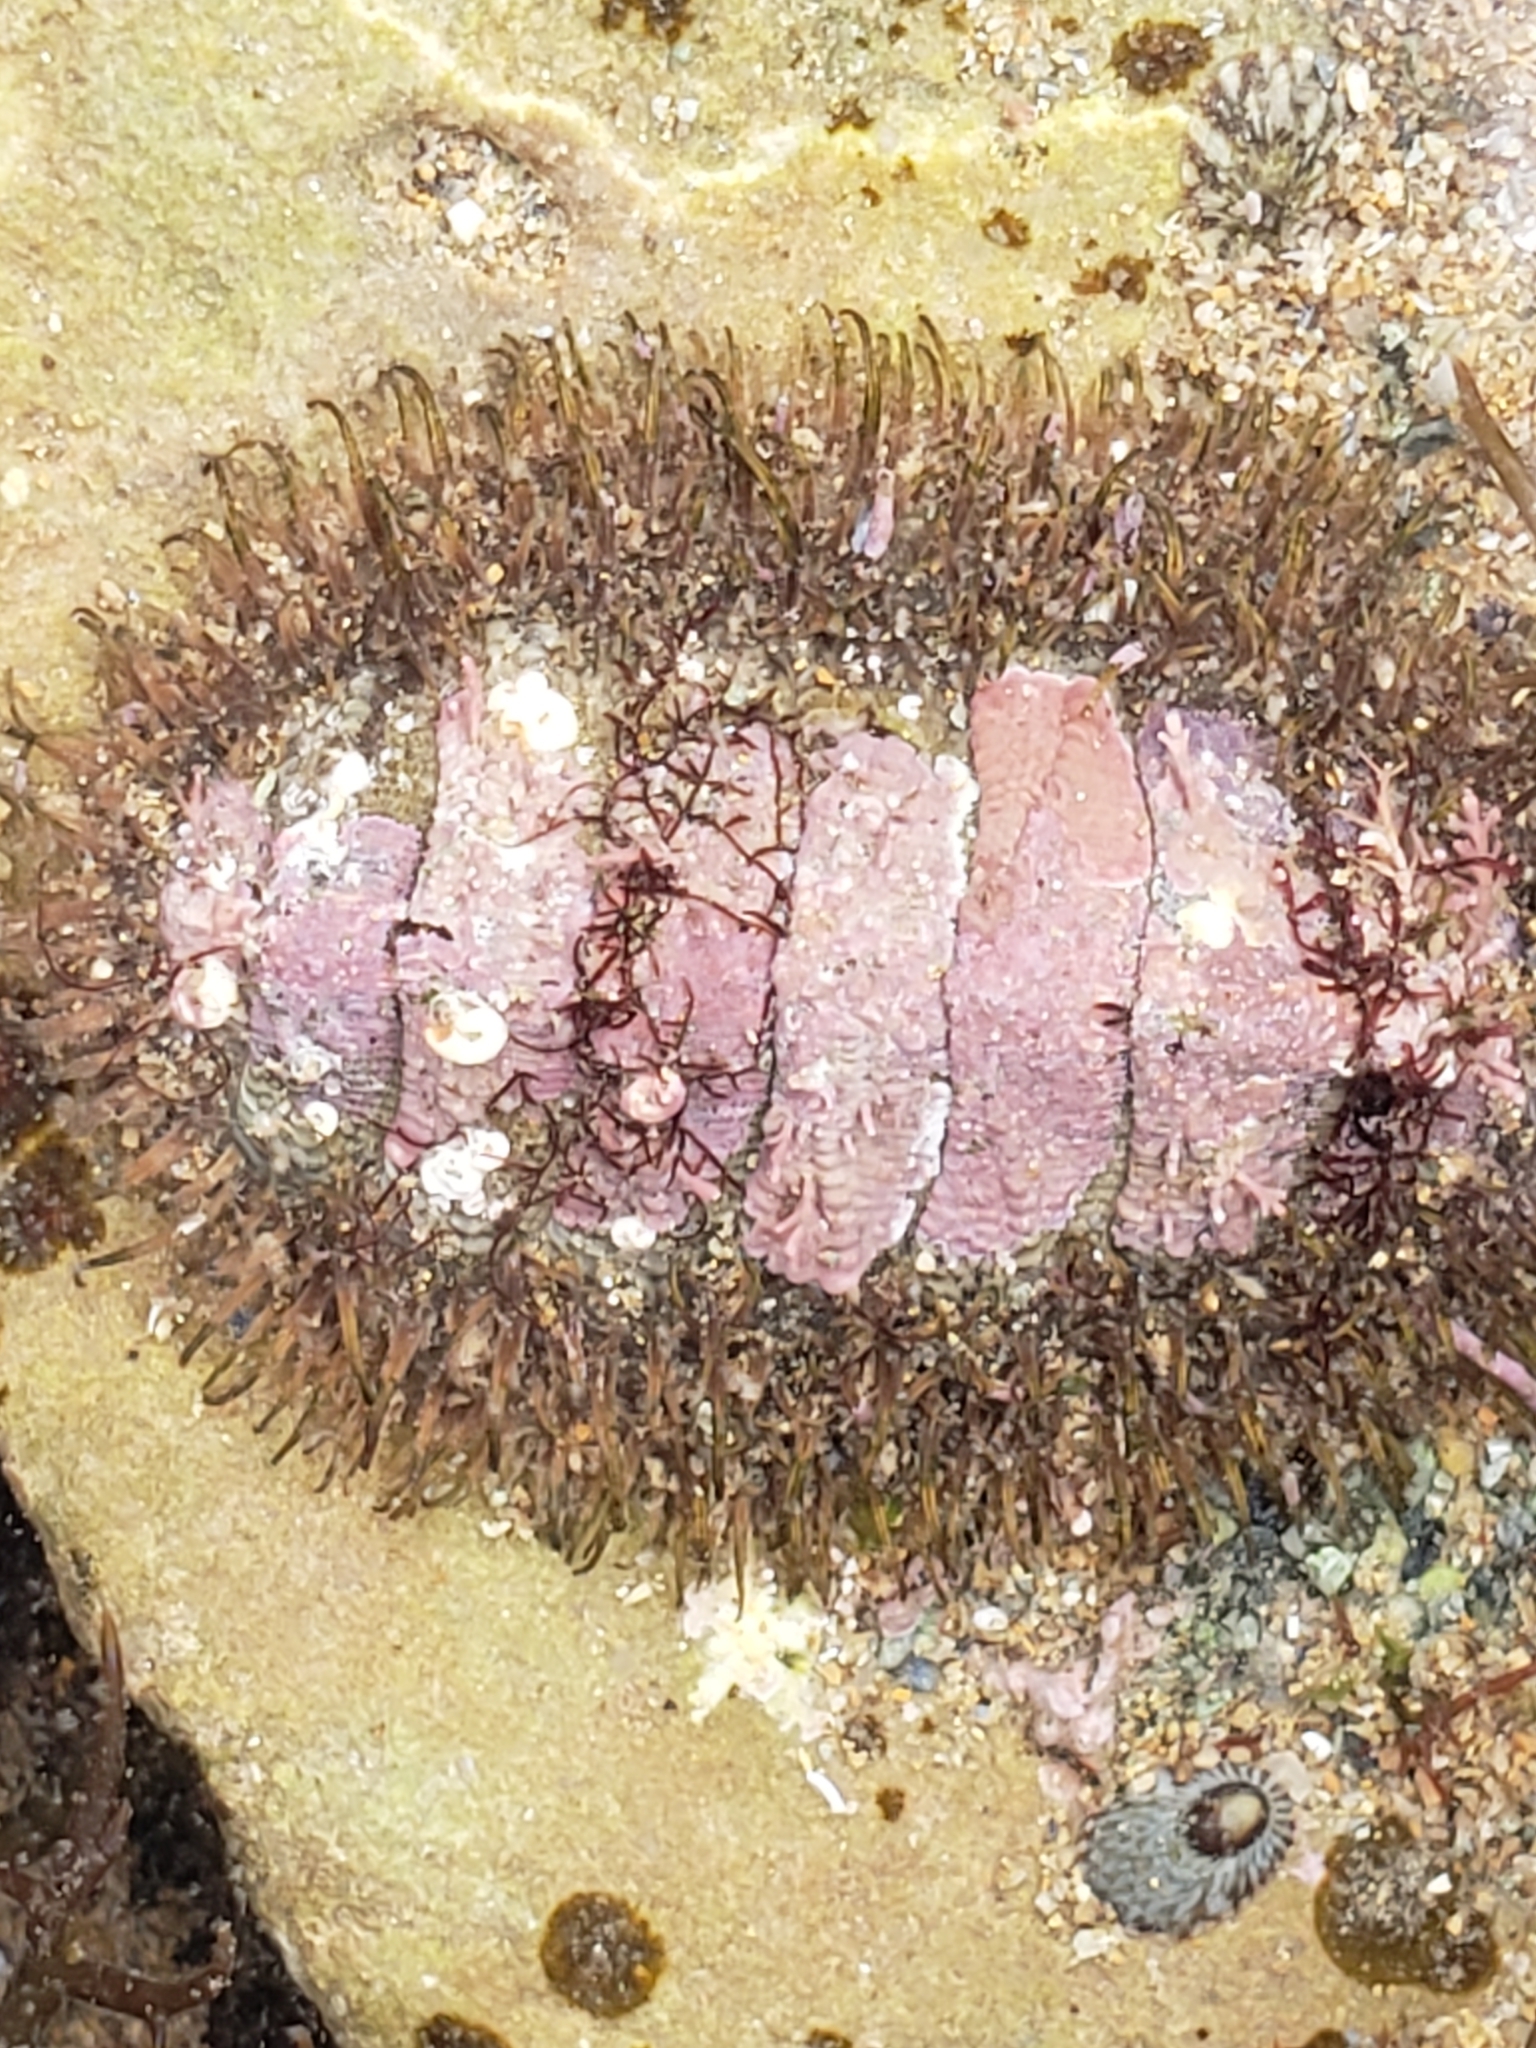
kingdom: Animalia
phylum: Mollusca
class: Polyplacophora
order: Chitonida
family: Mopaliidae
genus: Mopalia
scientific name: Mopalia muscosa
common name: Mossy chiton
